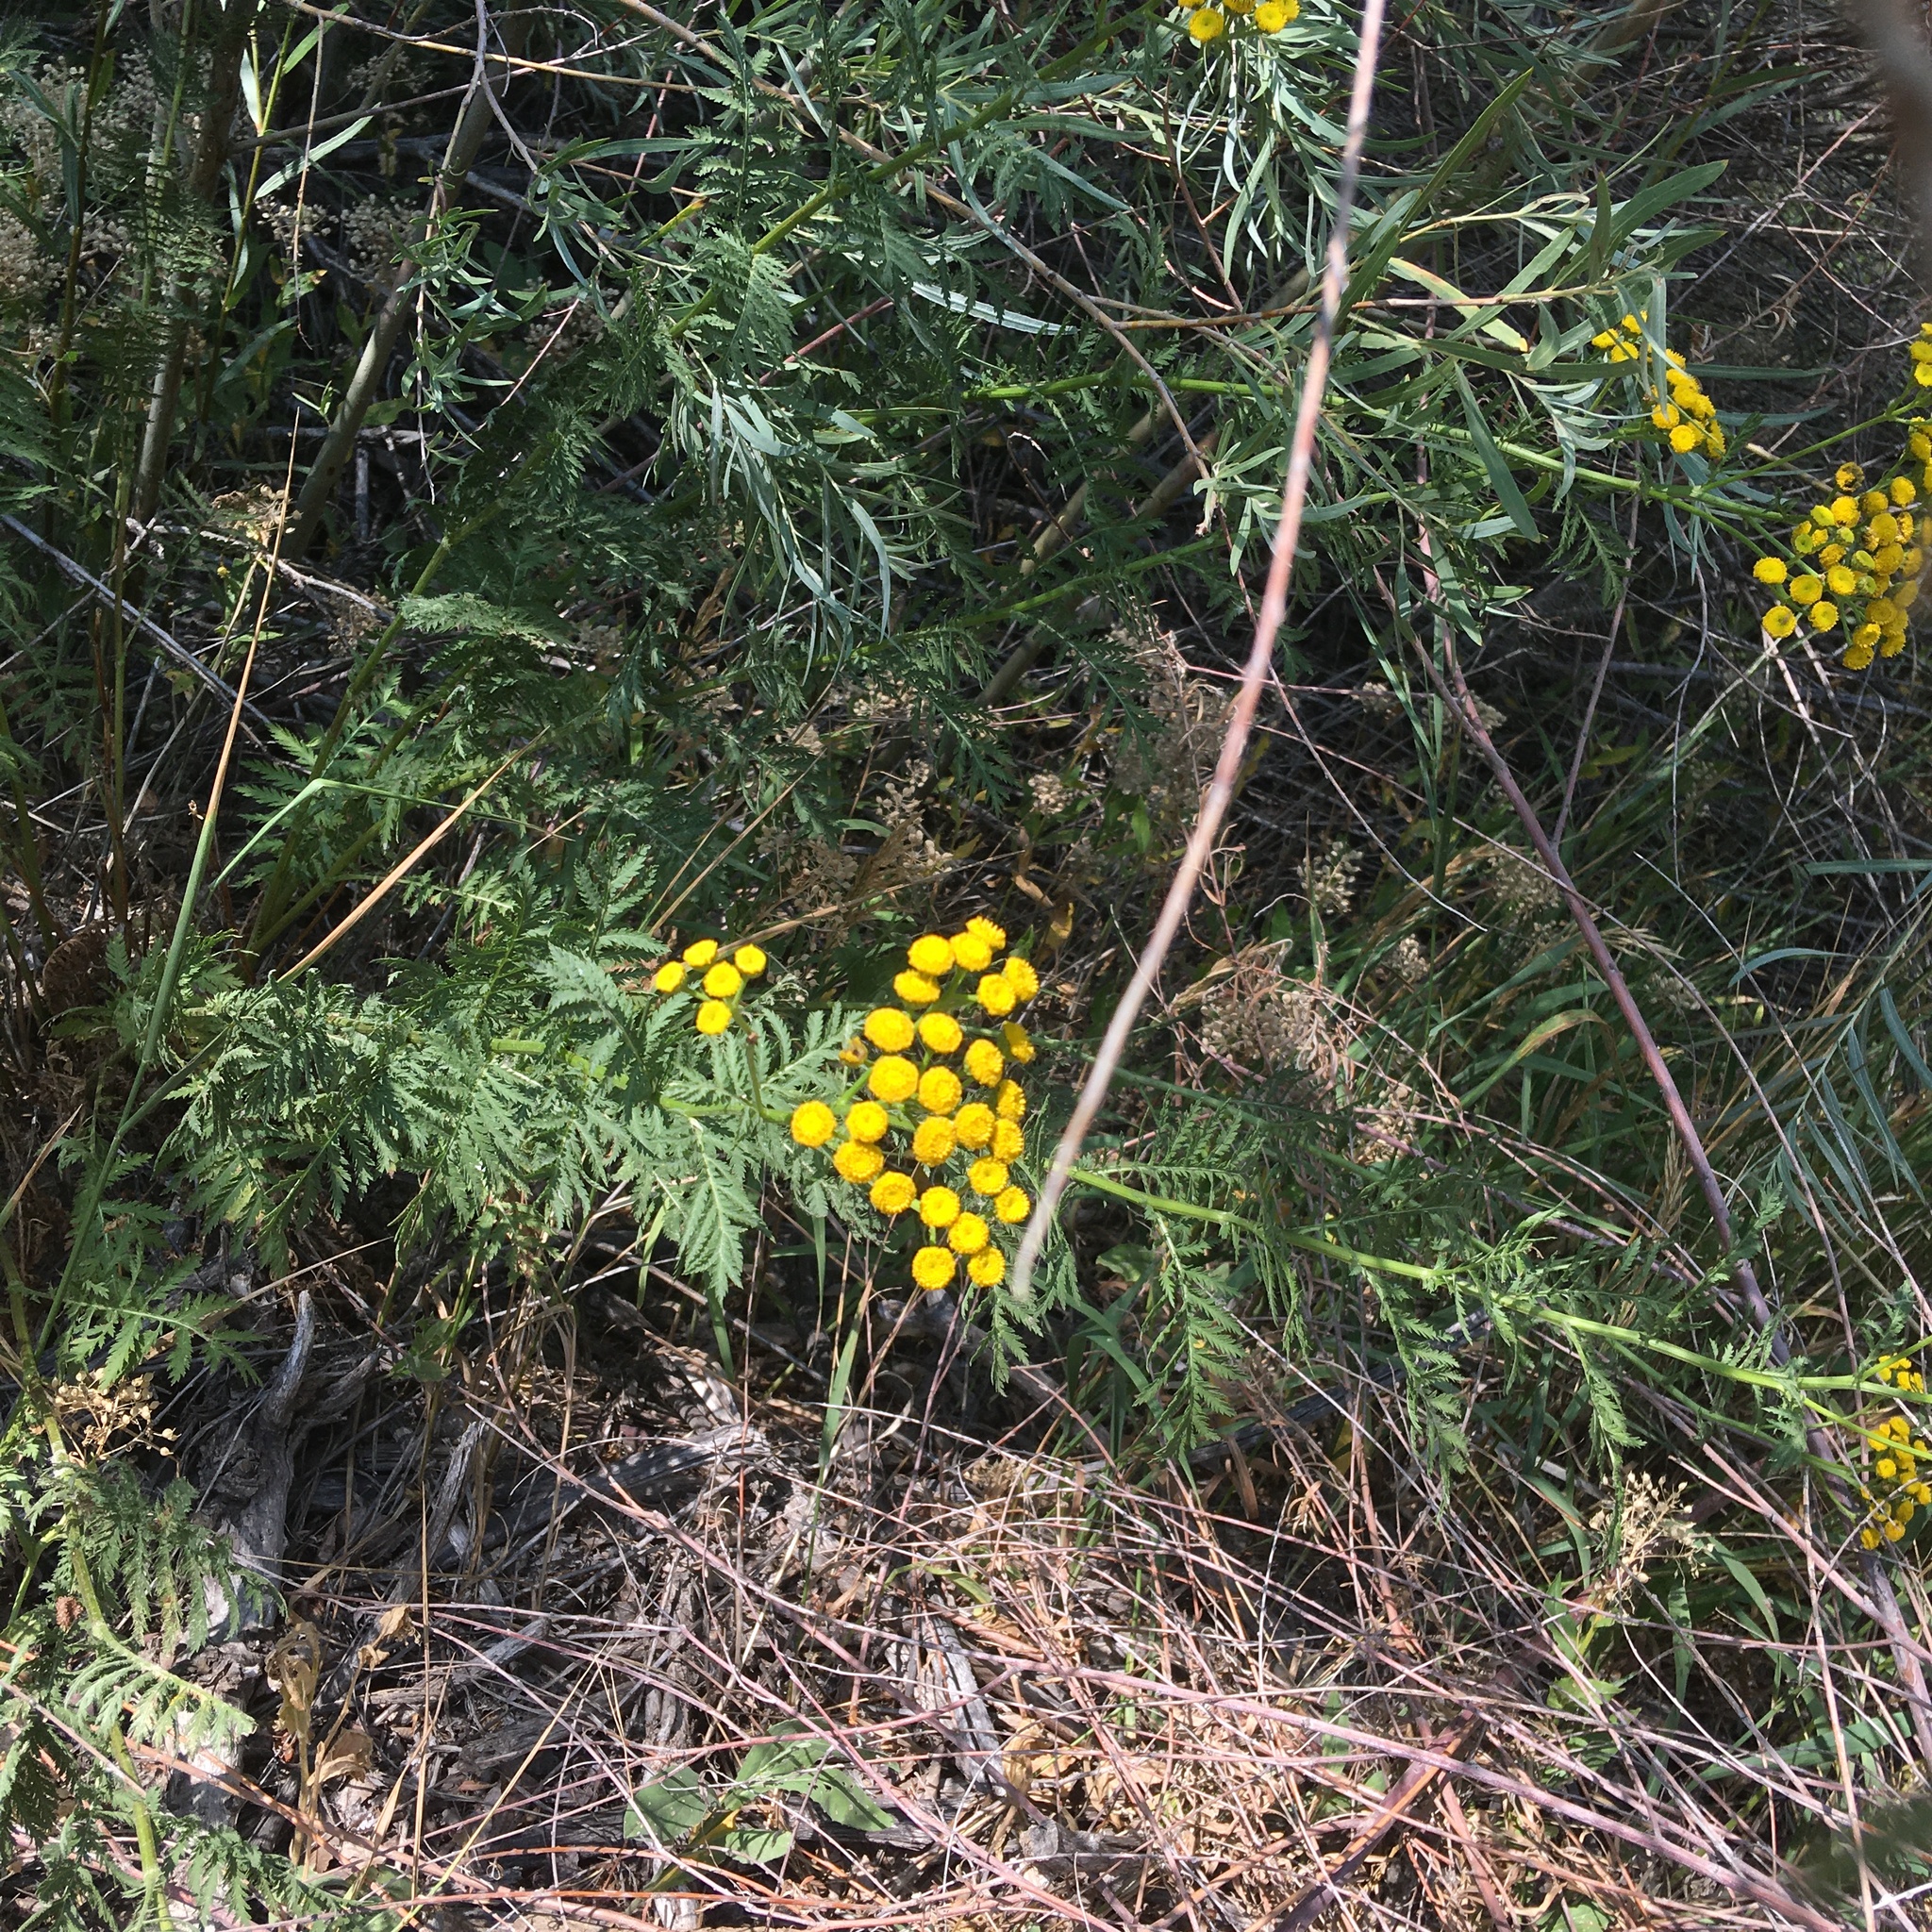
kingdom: Plantae
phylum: Tracheophyta
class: Magnoliopsida
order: Asterales
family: Asteraceae
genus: Tanacetum
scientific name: Tanacetum vulgare
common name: Common tansy
